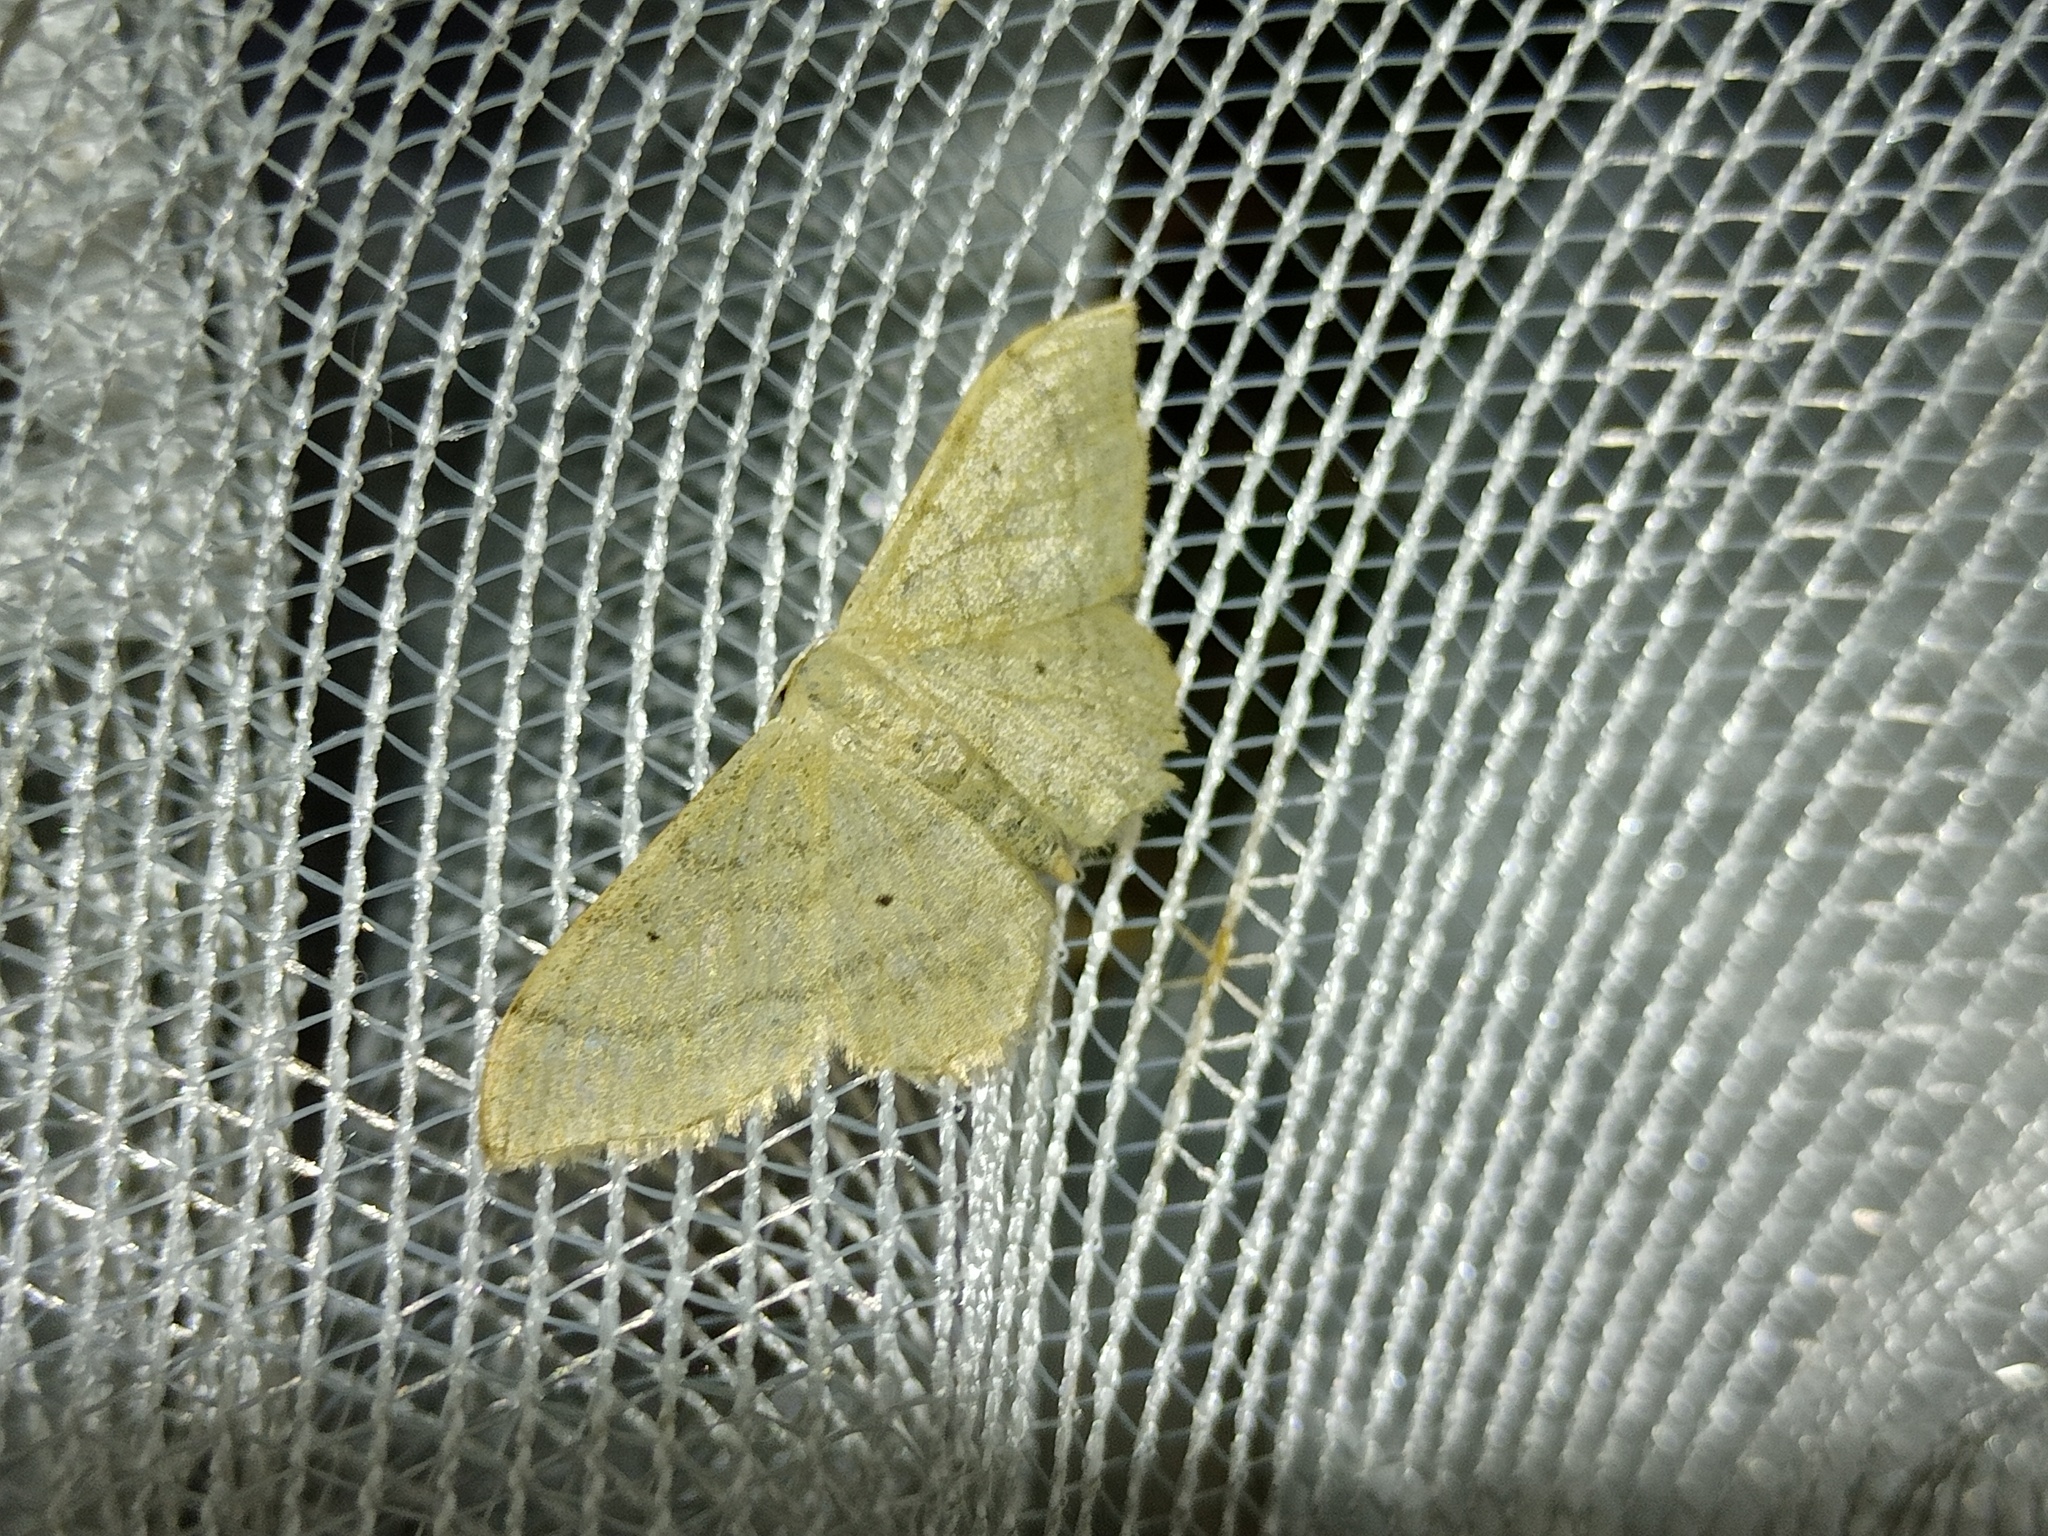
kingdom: Animalia
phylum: Arthropoda
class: Insecta
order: Lepidoptera
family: Geometridae
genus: Idaea
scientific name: Idaea straminata
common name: Plain wave
